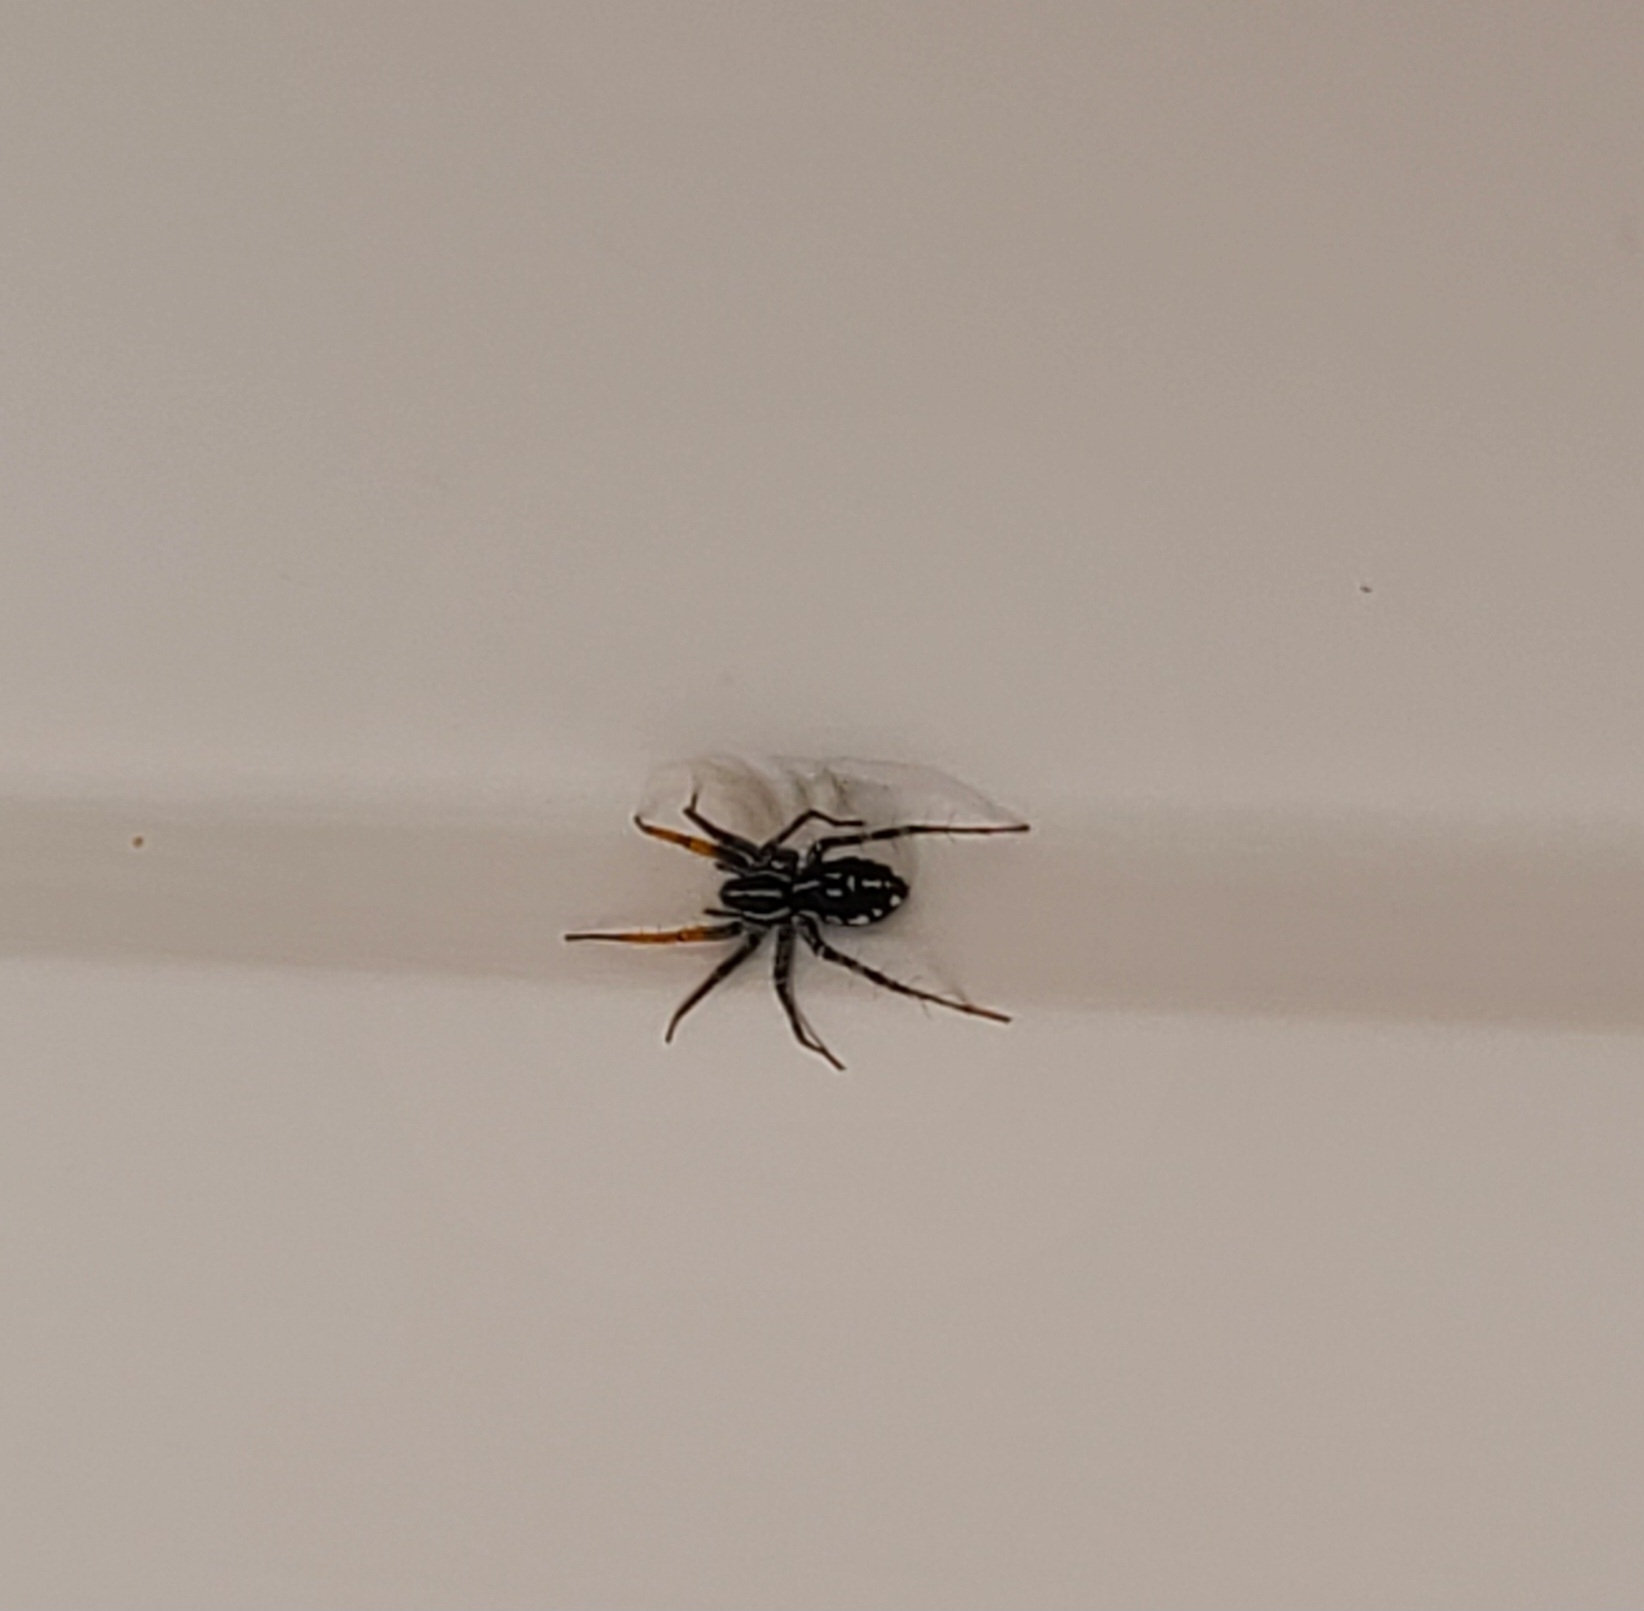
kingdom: Animalia
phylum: Arthropoda
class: Arachnida
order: Araneae
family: Corinnidae
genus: Nyssus
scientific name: Nyssus coloripes
